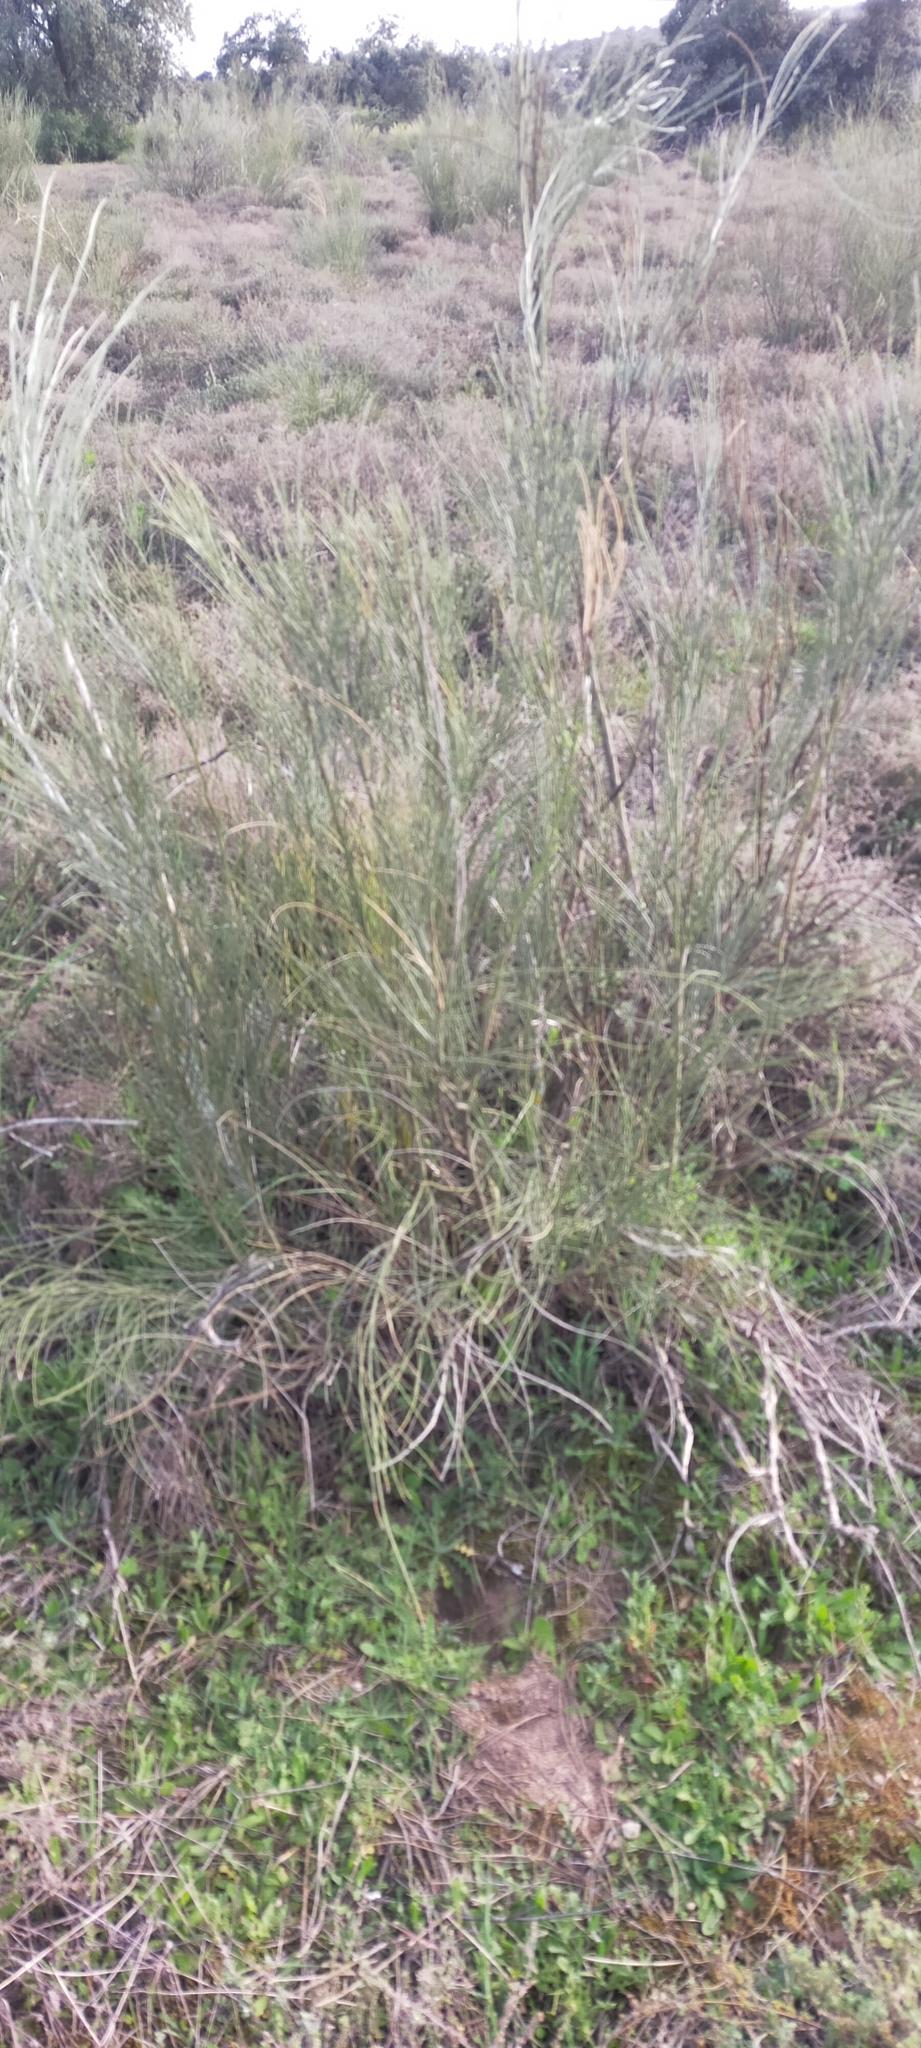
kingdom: Plantae
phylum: Tracheophyta
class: Magnoliopsida
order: Fabales
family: Fabaceae
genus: Retama
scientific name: Retama sphaerocarpa
